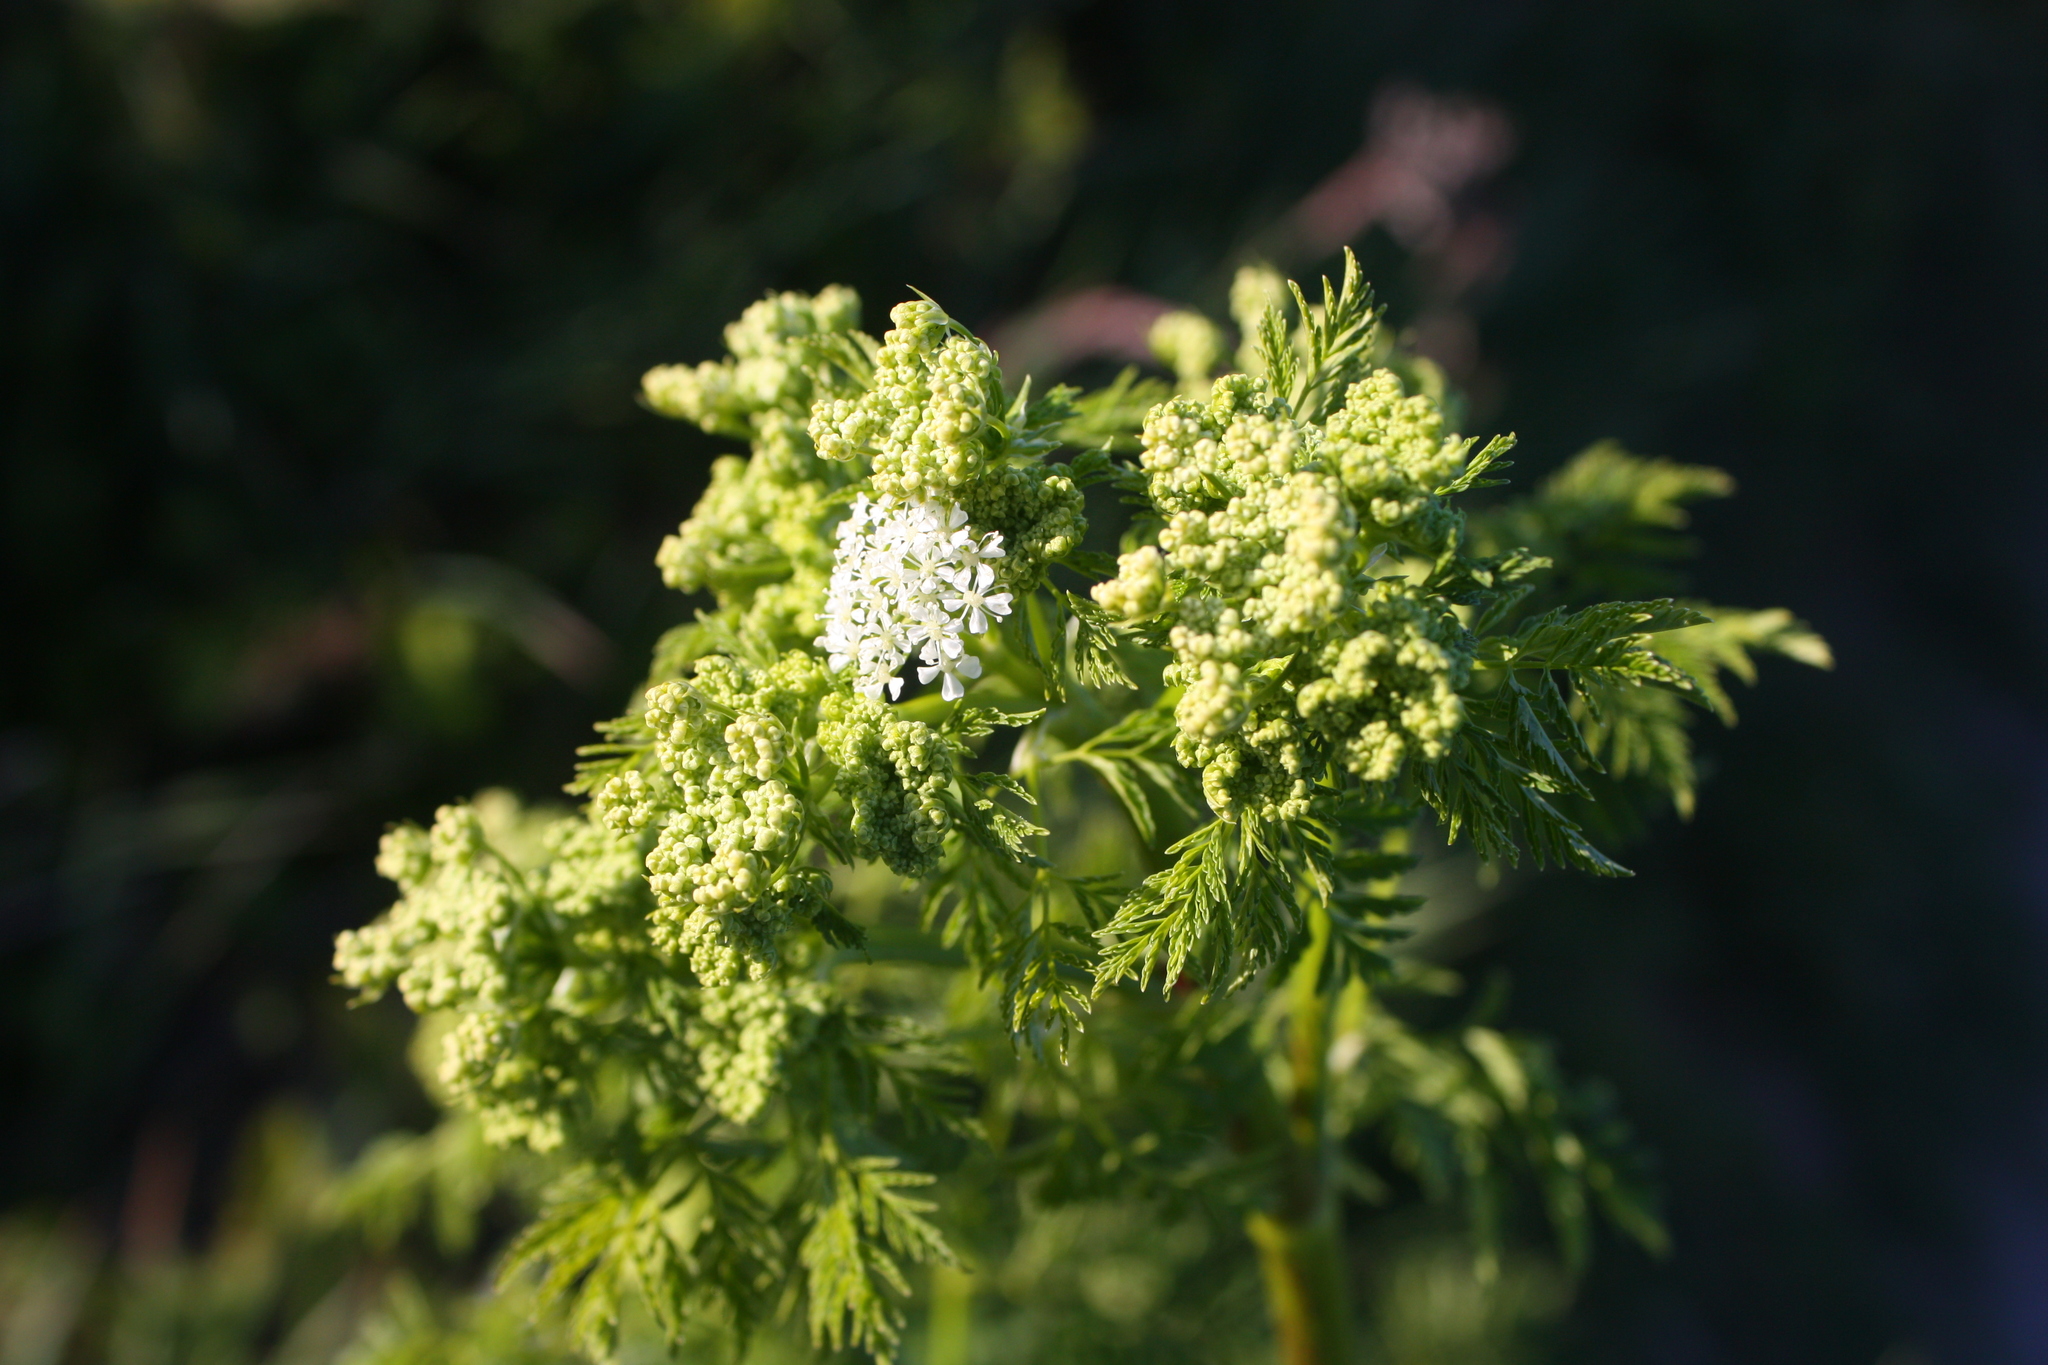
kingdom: Plantae
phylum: Tracheophyta
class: Magnoliopsida
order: Apiales
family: Apiaceae
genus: Conium
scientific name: Conium maculatum
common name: Hemlock
